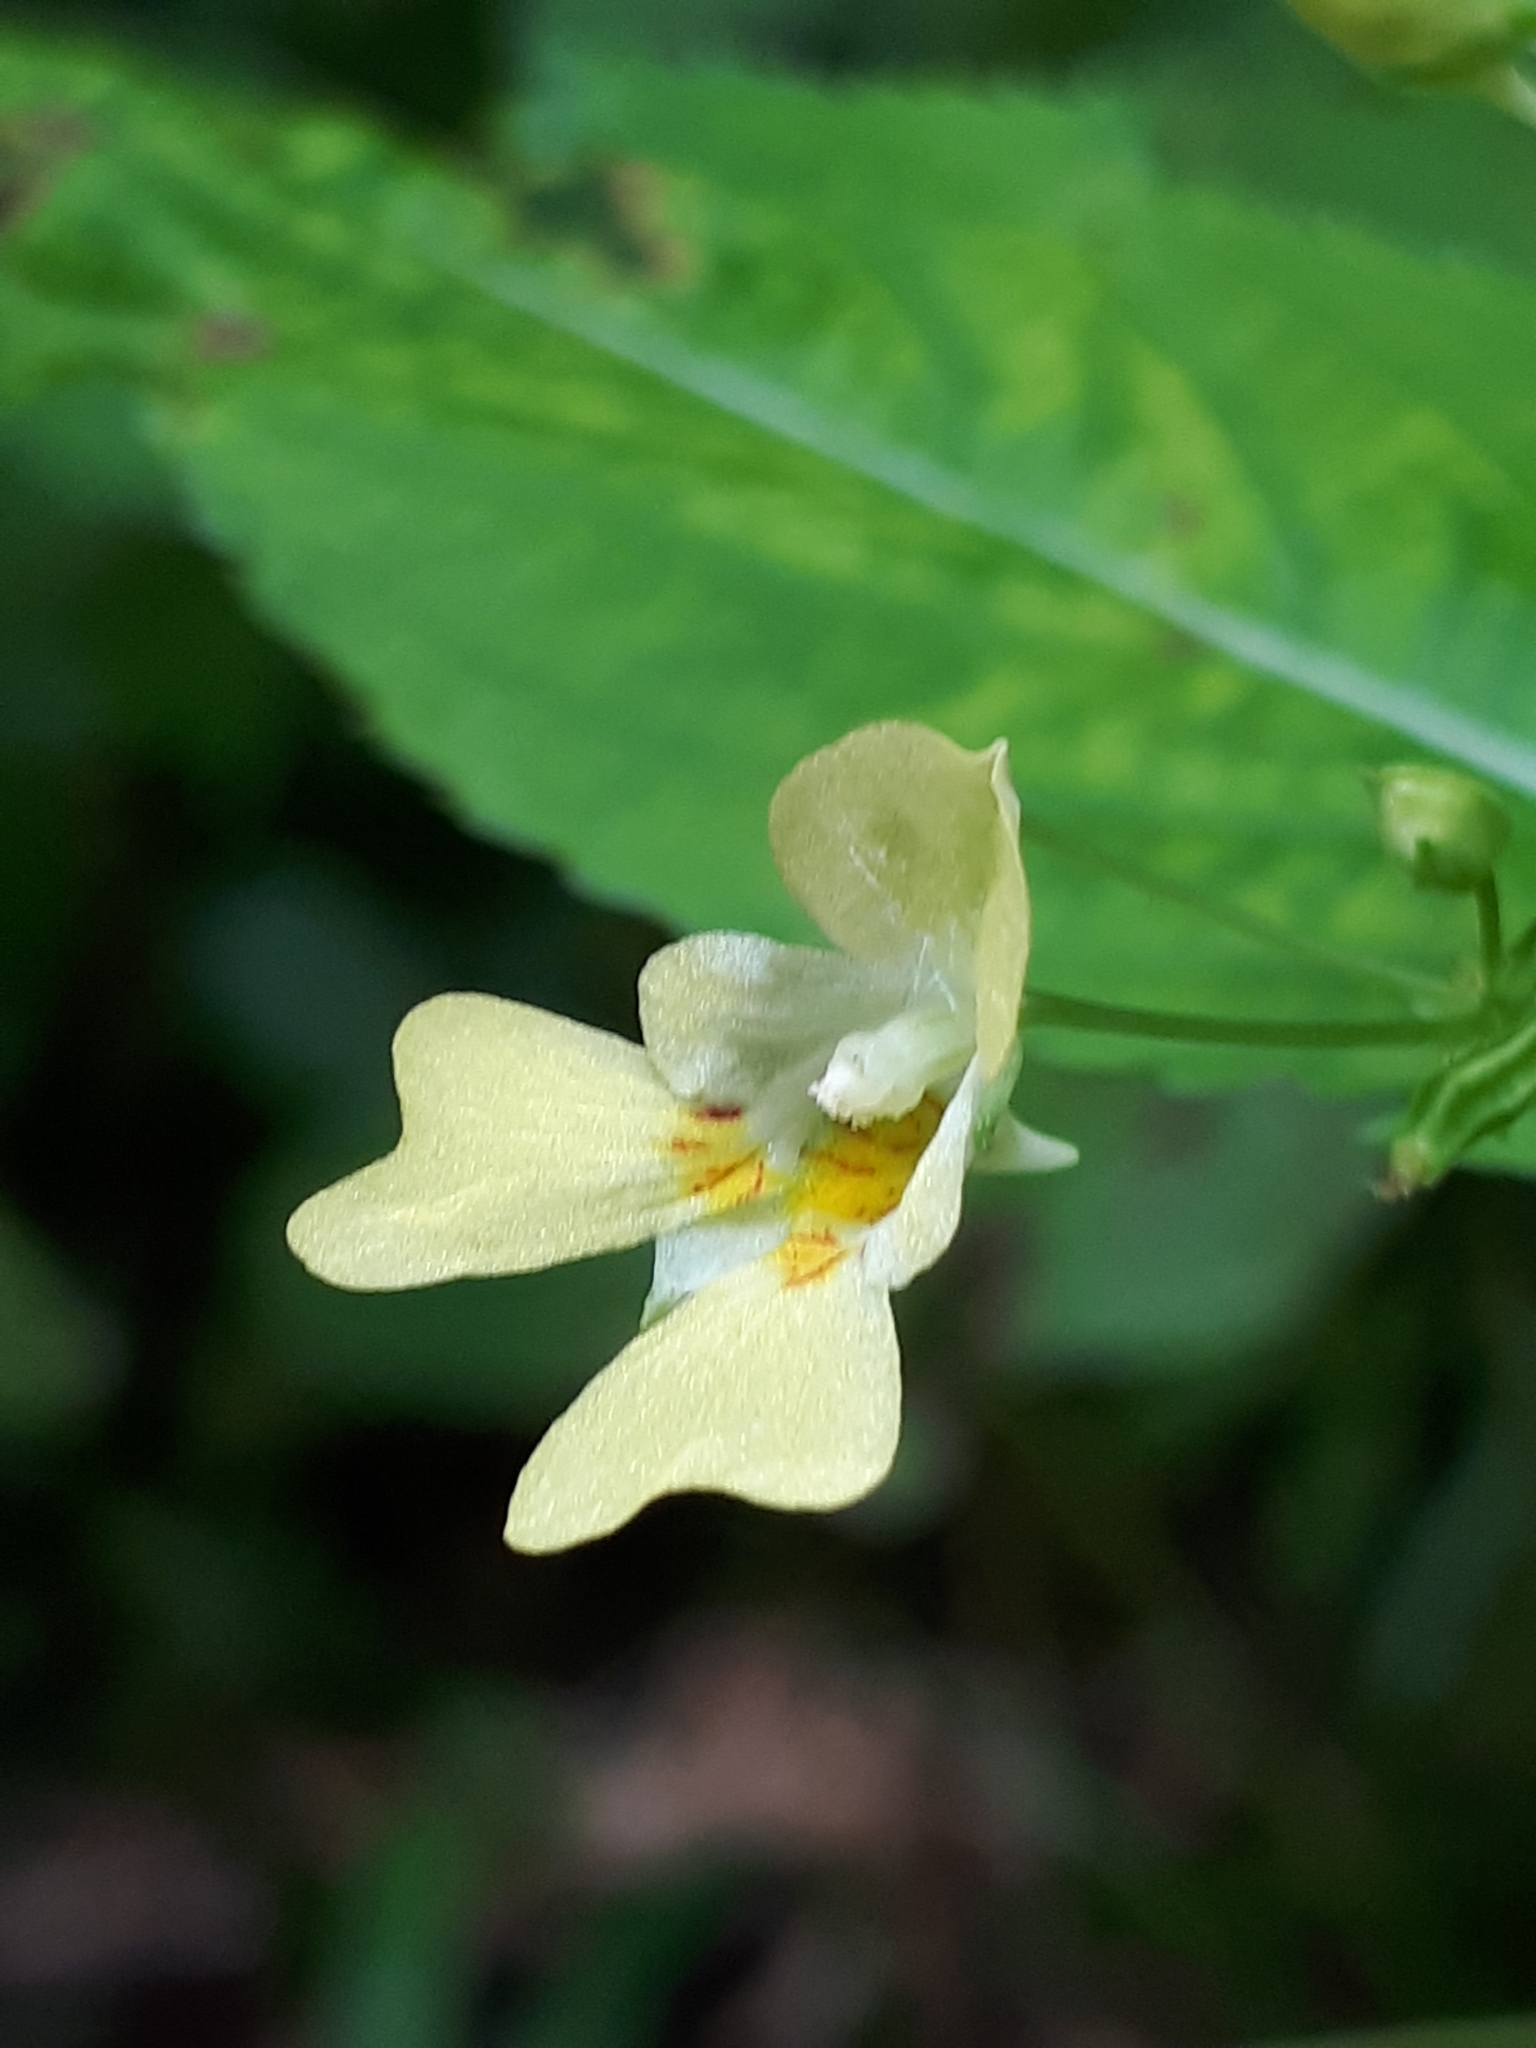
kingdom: Plantae
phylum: Tracheophyta
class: Magnoliopsida
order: Ericales
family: Balsaminaceae
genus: Impatiens
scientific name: Impatiens parviflora
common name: Small balsam
